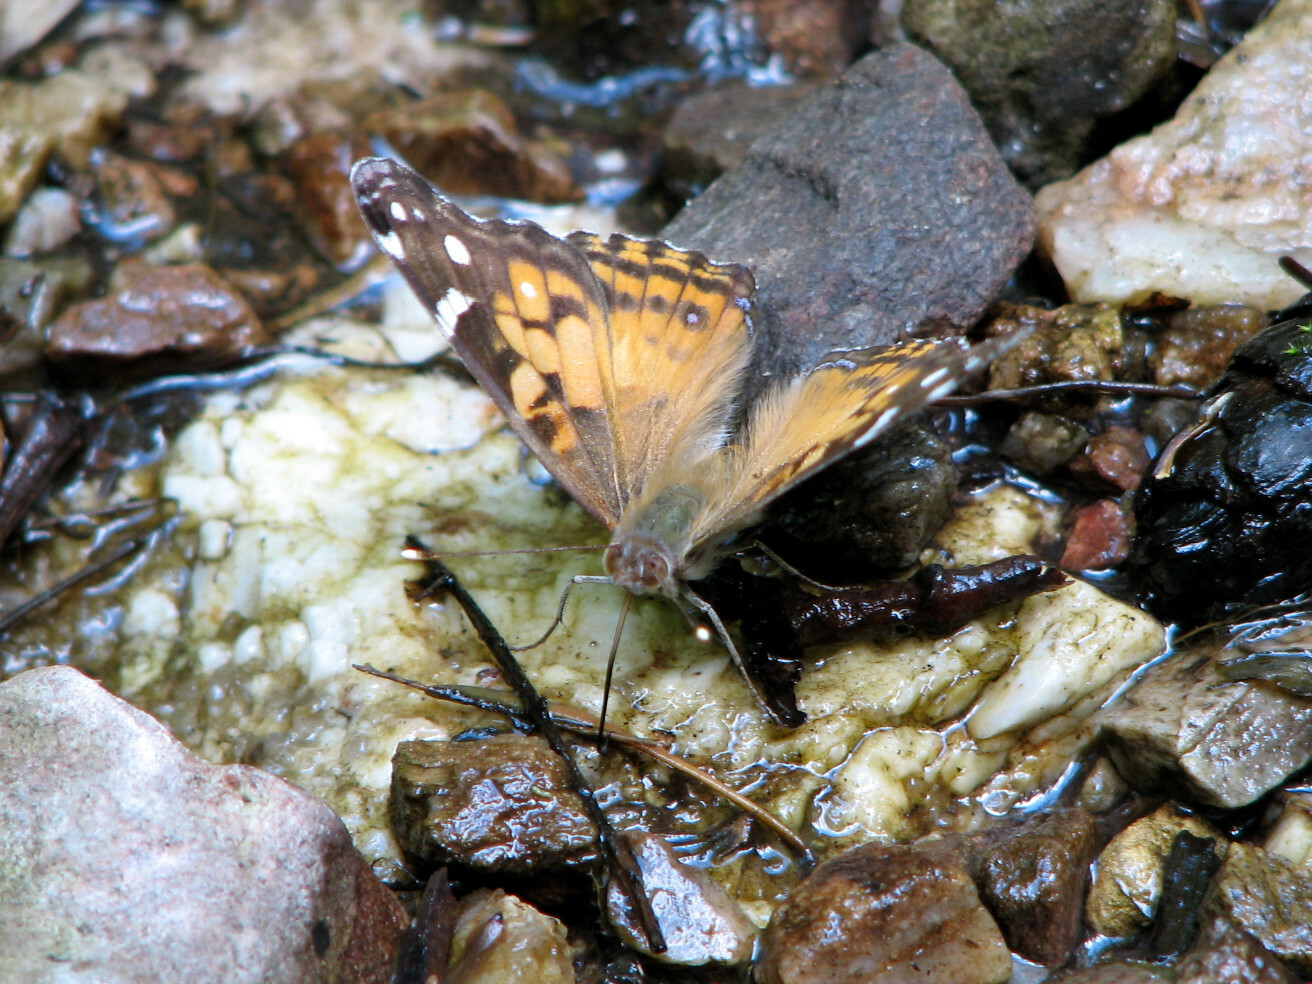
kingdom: Animalia
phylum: Arthropoda
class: Insecta
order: Lepidoptera
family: Nymphalidae
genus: Vanessa
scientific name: Vanessa virginiensis
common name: American lady
